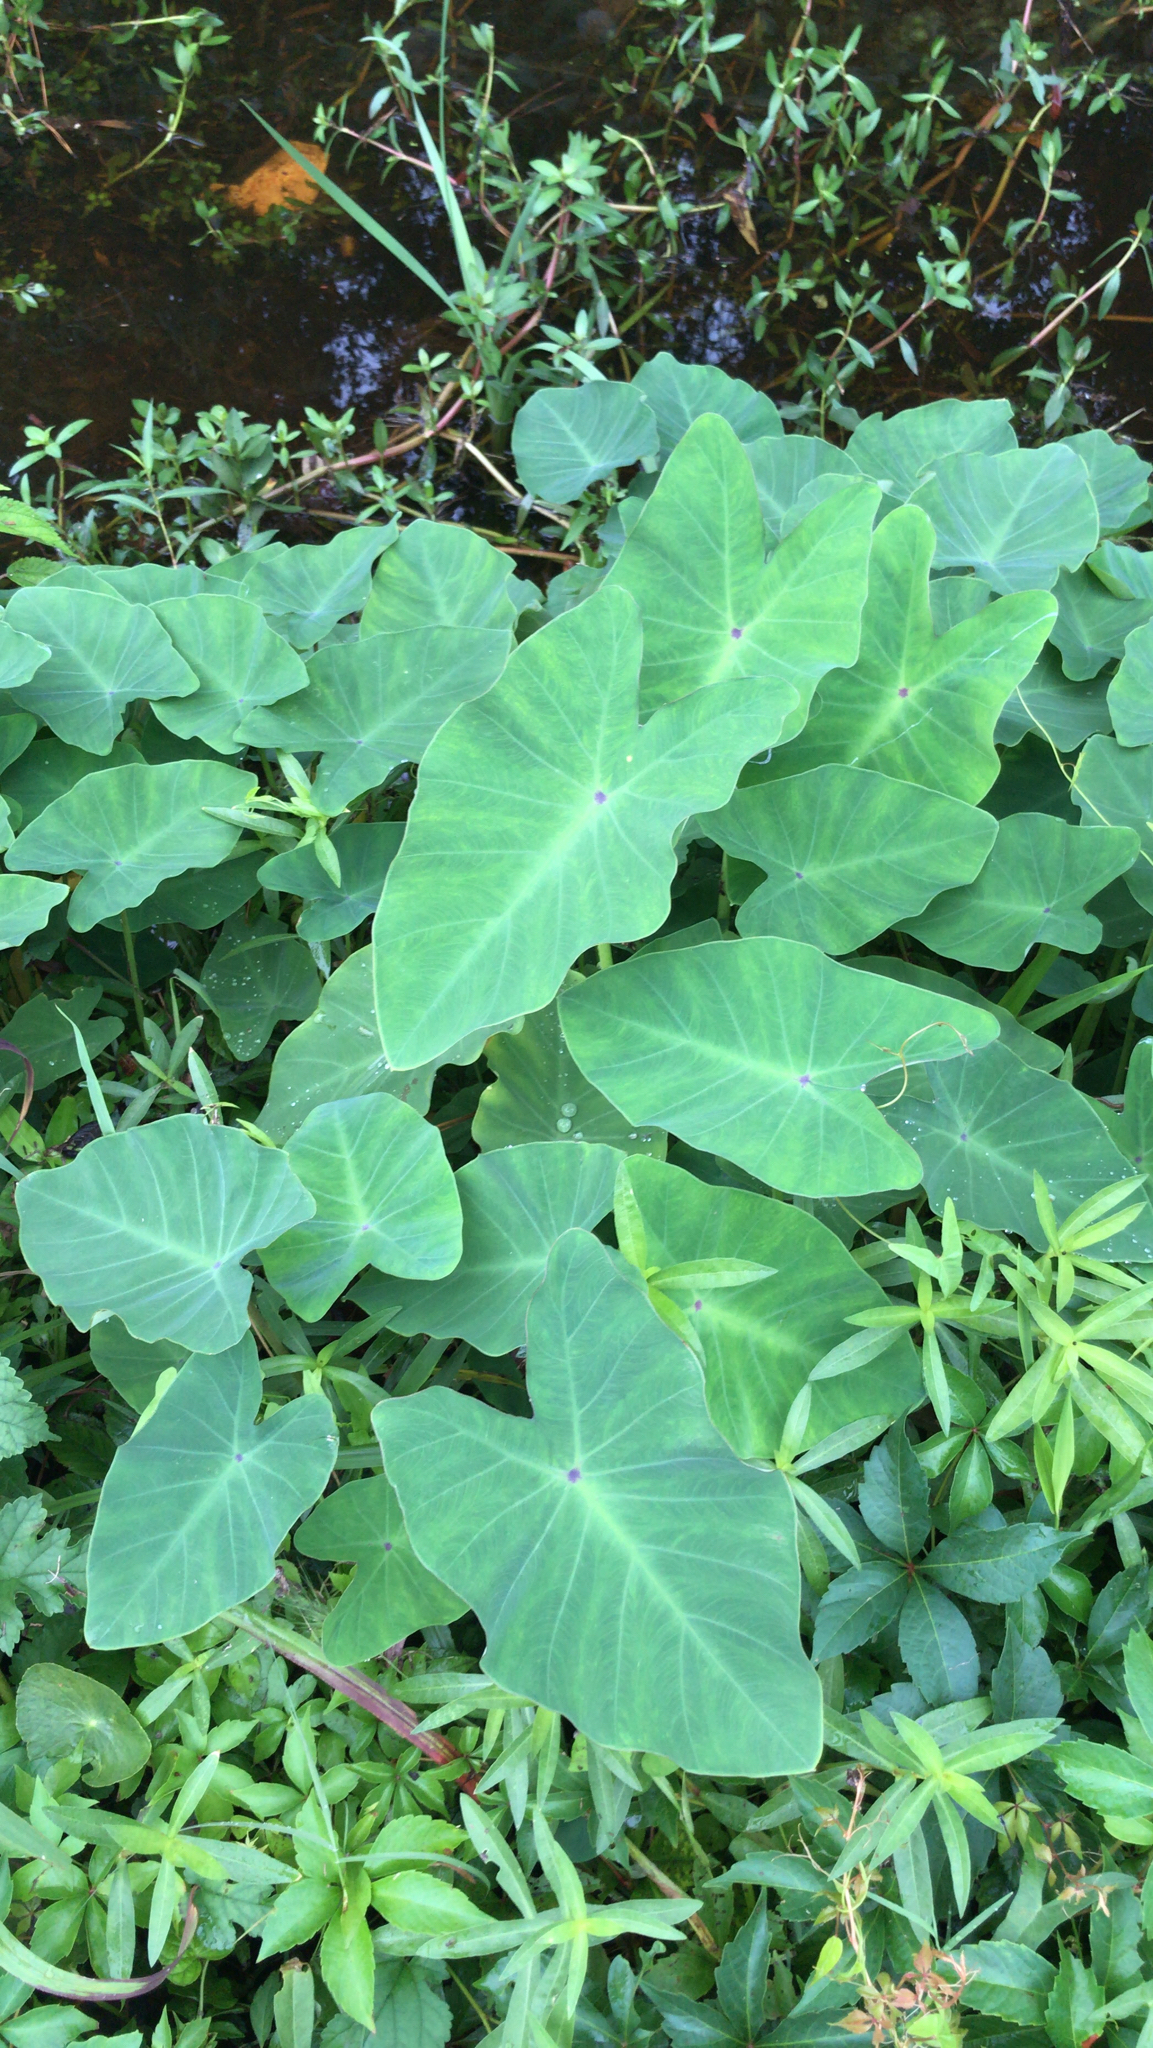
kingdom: Plantae
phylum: Tracheophyta
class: Liliopsida
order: Alismatales
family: Araceae
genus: Colocasia
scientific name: Colocasia esculenta
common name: Taro
